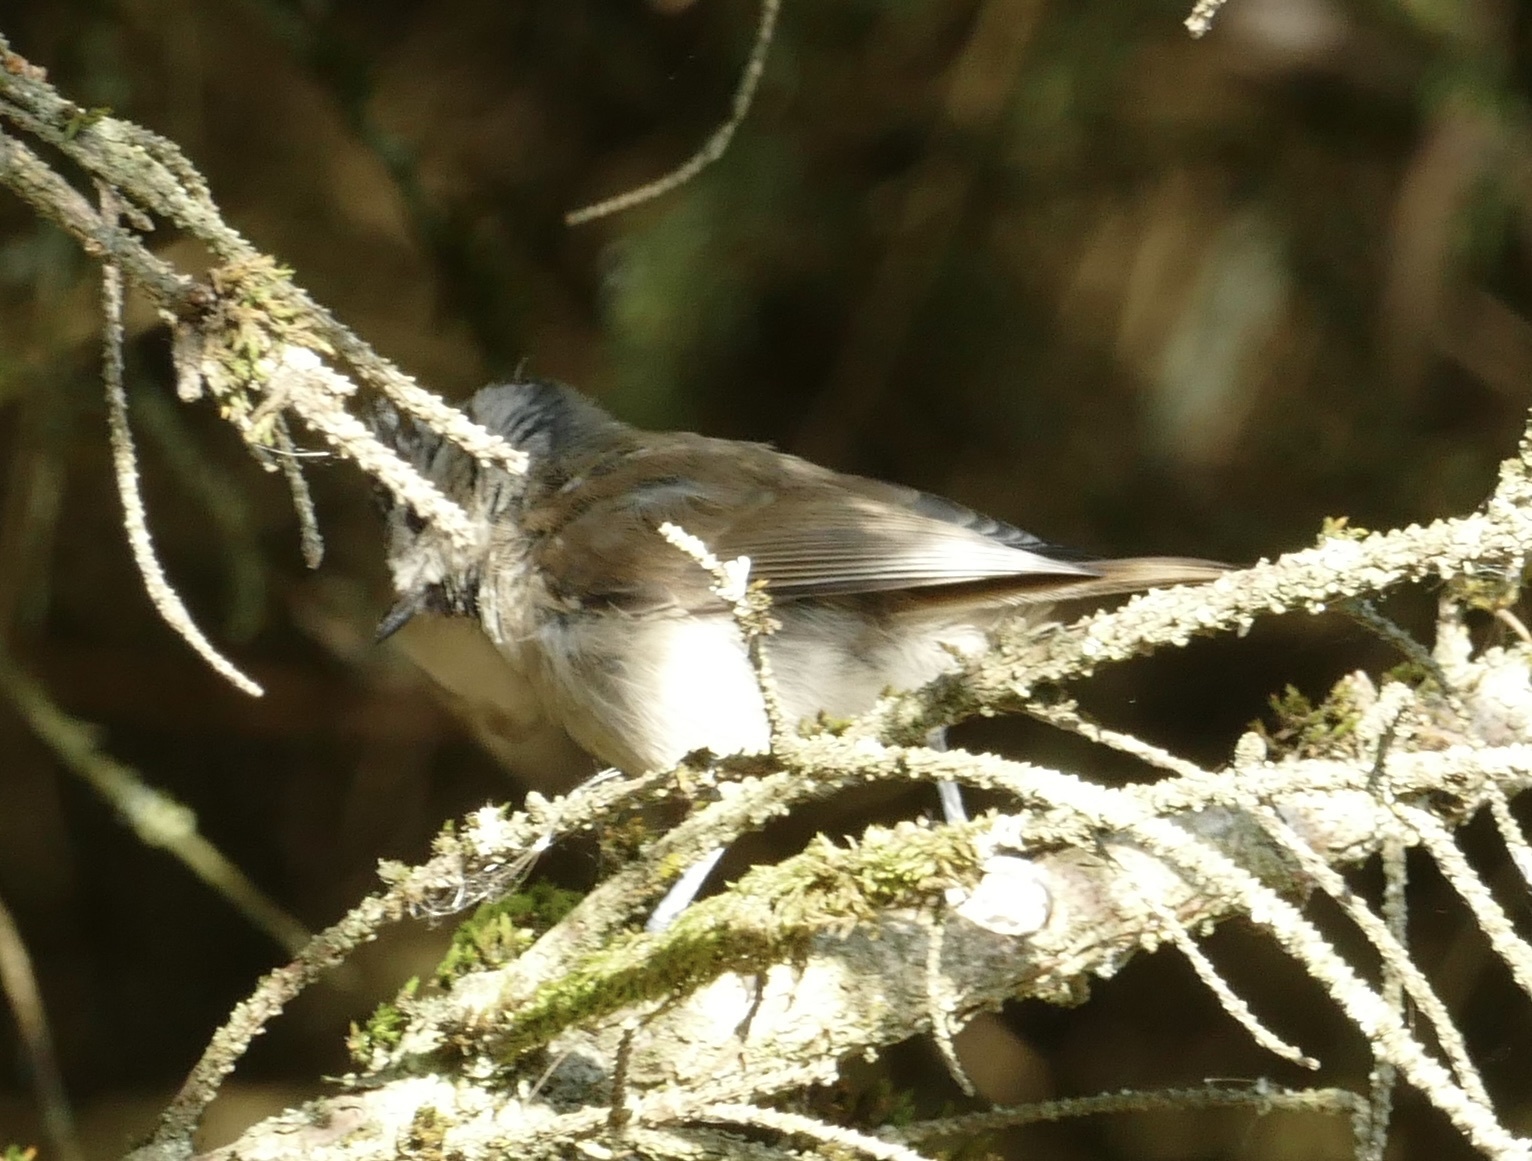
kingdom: Animalia
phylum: Chordata
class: Aves
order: Passeriformes
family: Paridae
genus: Lophophanes
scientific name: Lophophanes cristatus
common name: European crested tit
